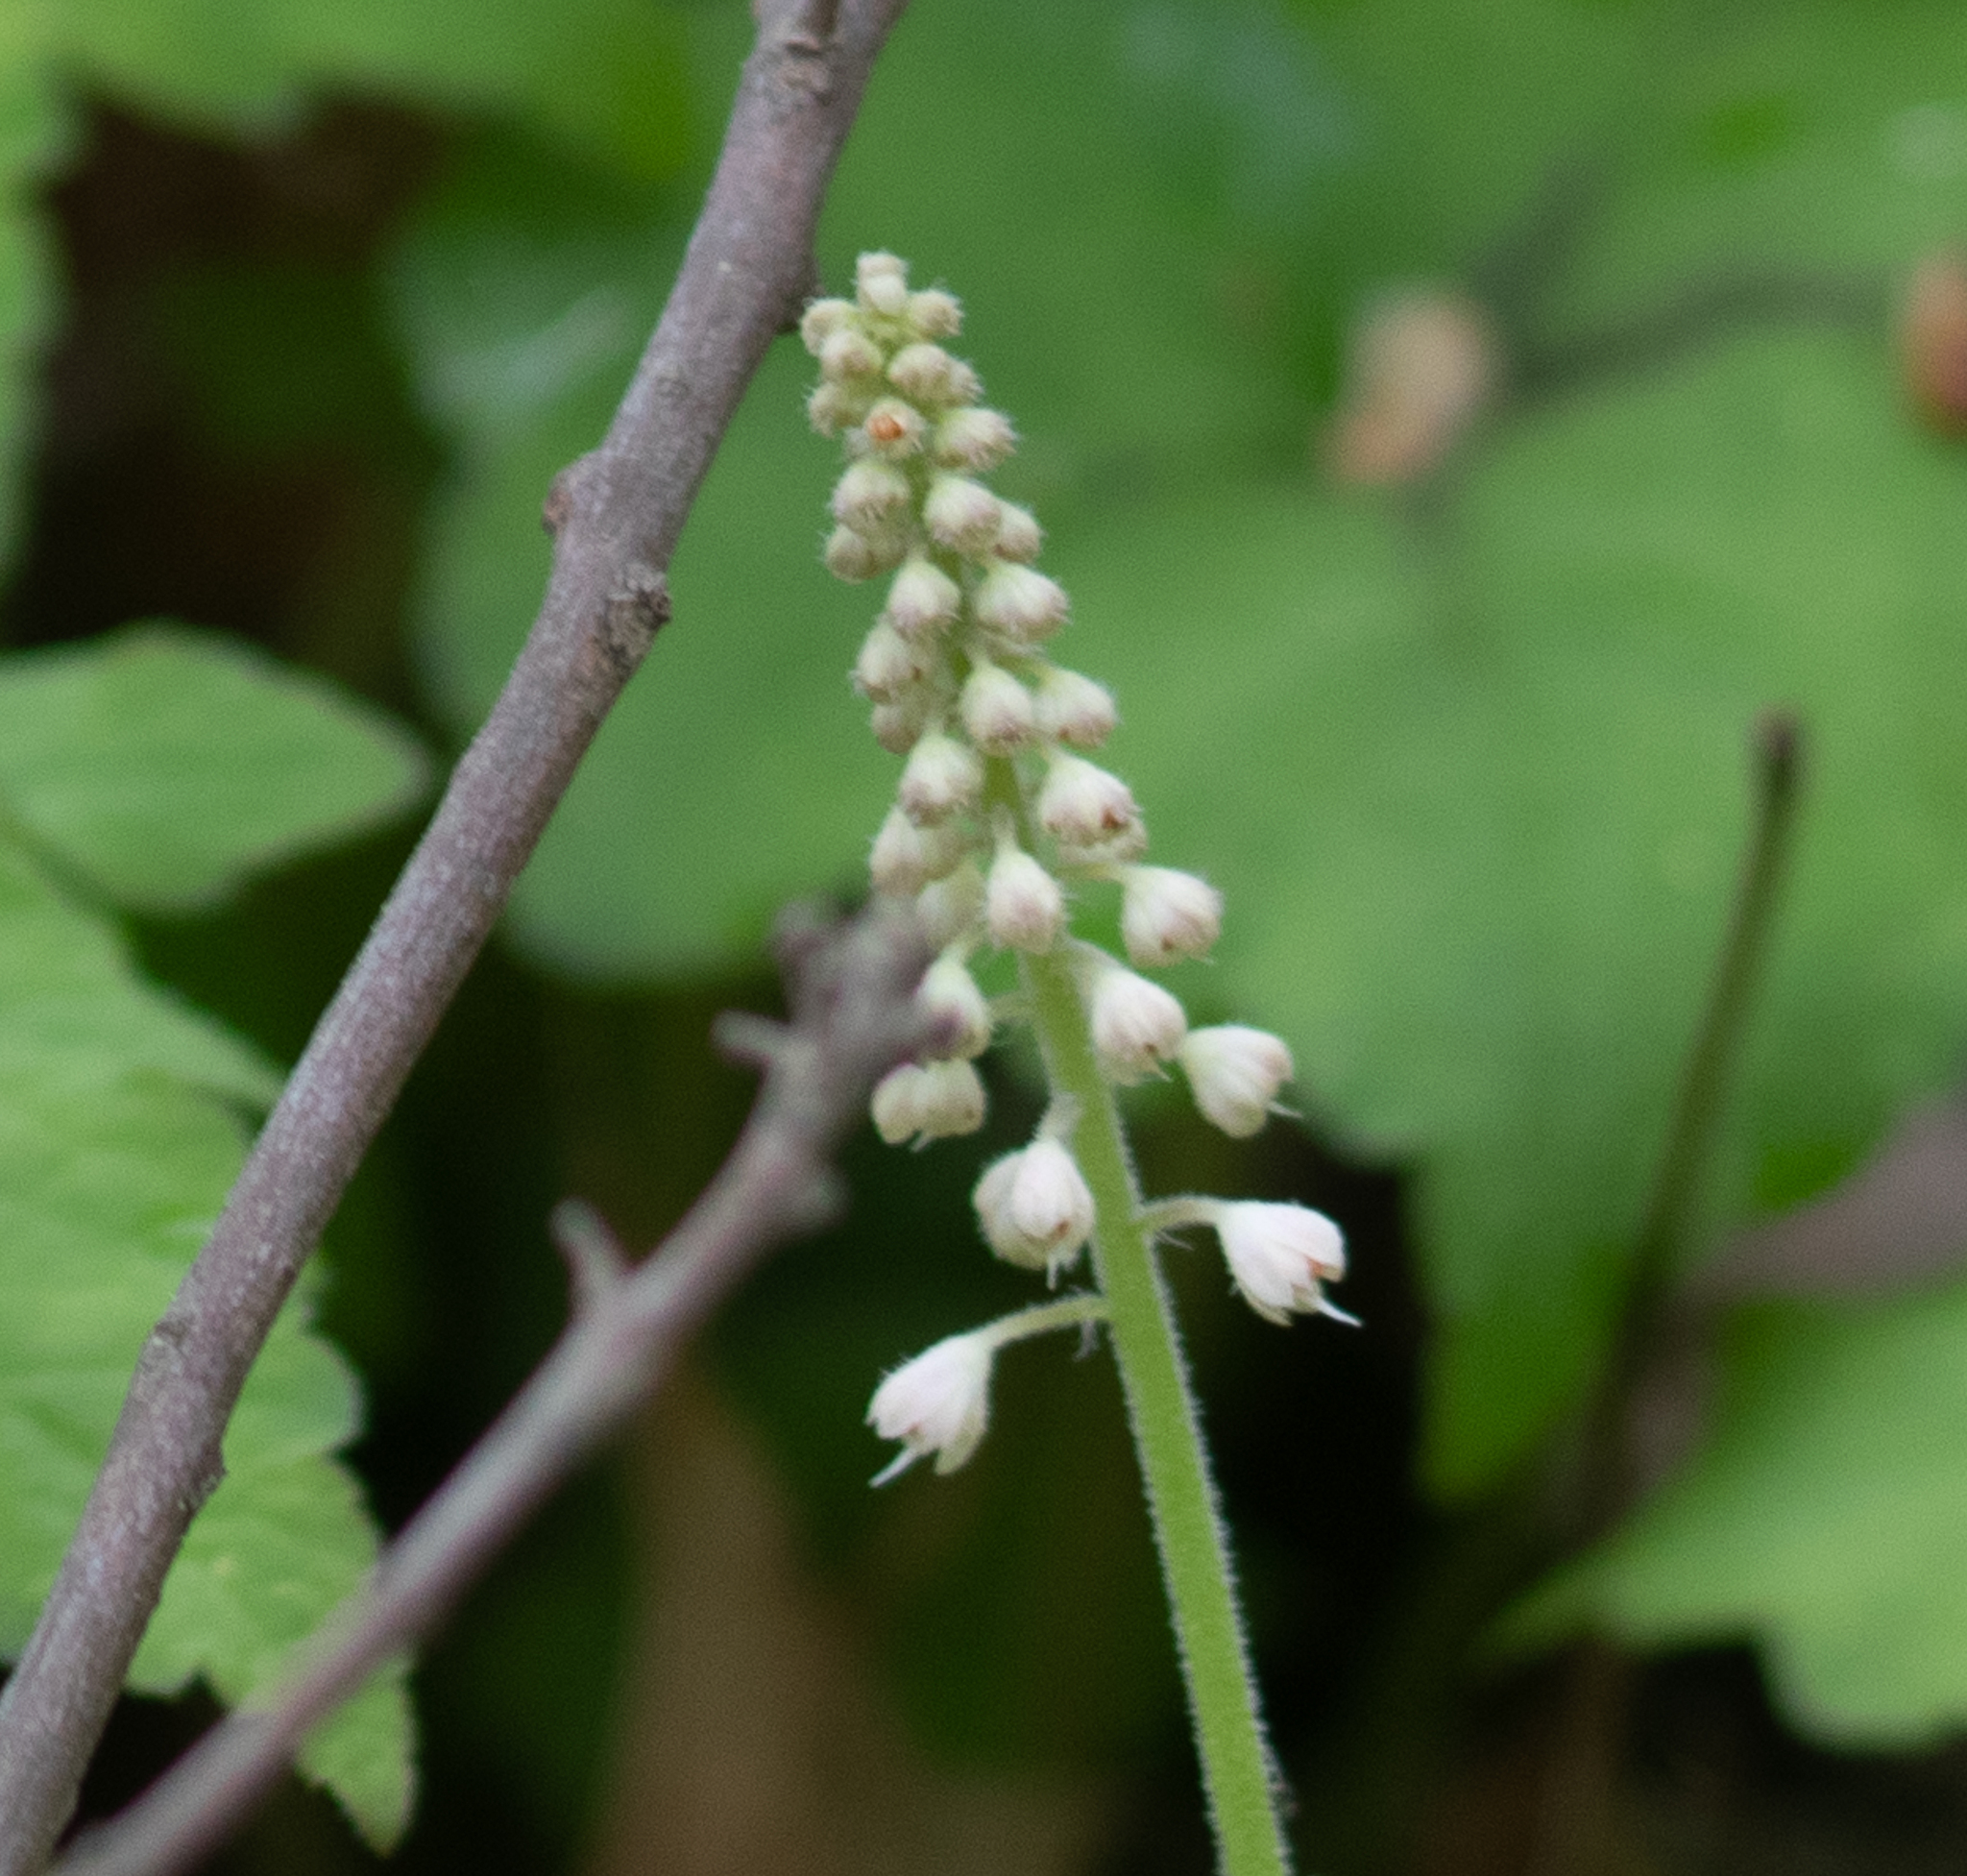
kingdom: Plantae
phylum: Tracheophyta
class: Magnoliopsida
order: Saxifragales
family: Saxifragaceae
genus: Tiarella
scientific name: Tiarella stolonifera
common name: Stoloniferous foamflower
